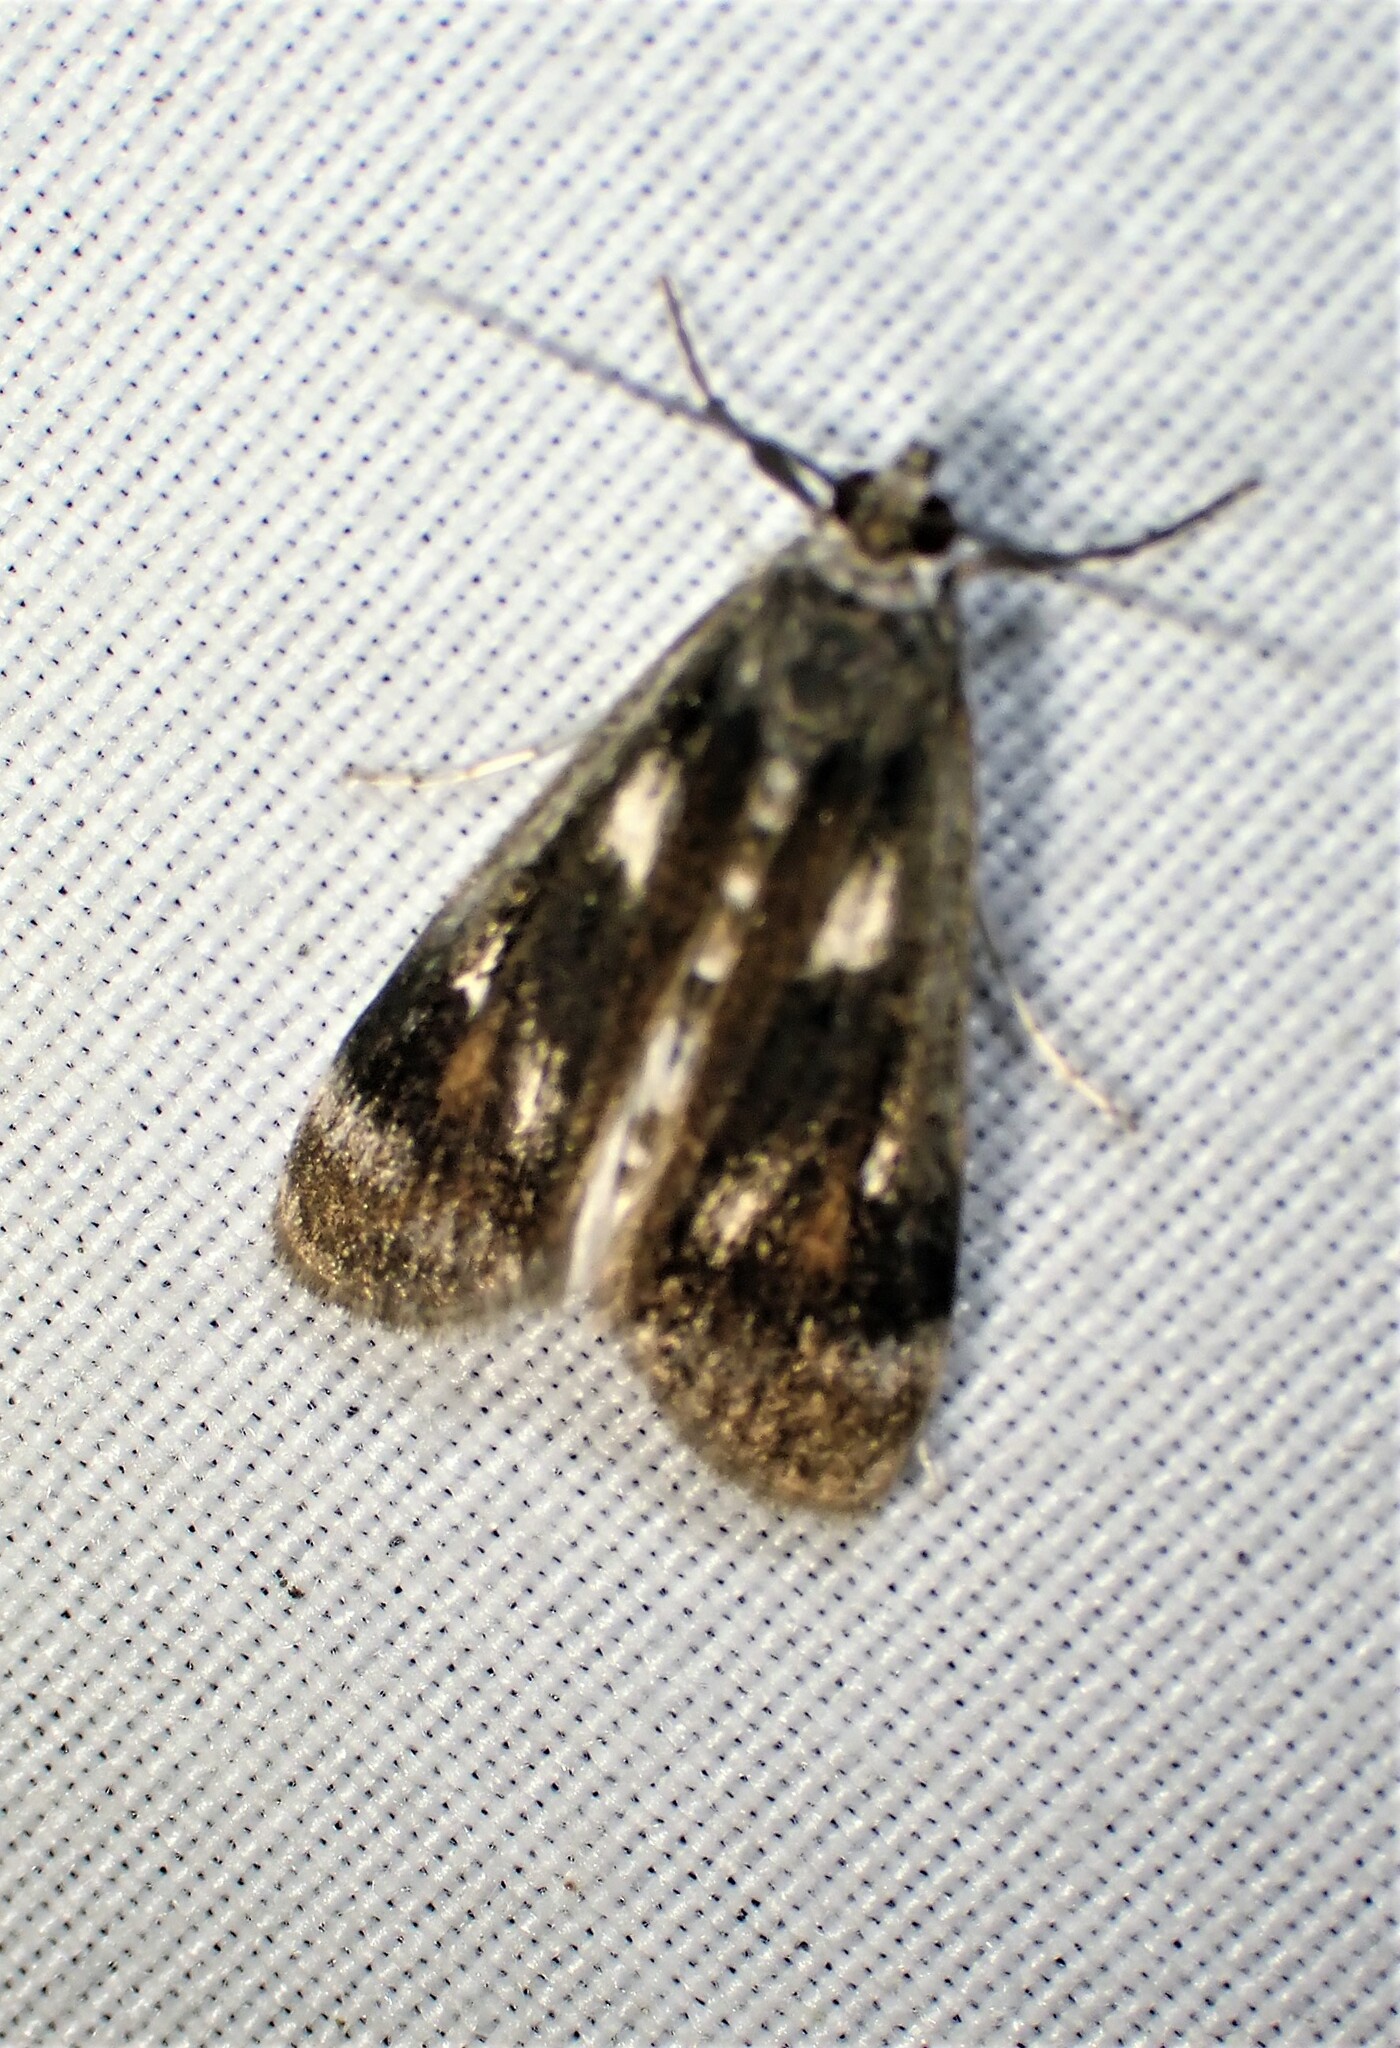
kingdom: Animalia
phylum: Arthropoda
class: Insecta
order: Lepidoptera
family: Crambidae
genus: Parapoynx
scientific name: Parapoynx maculalis
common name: Polymorphic pondweed moth
